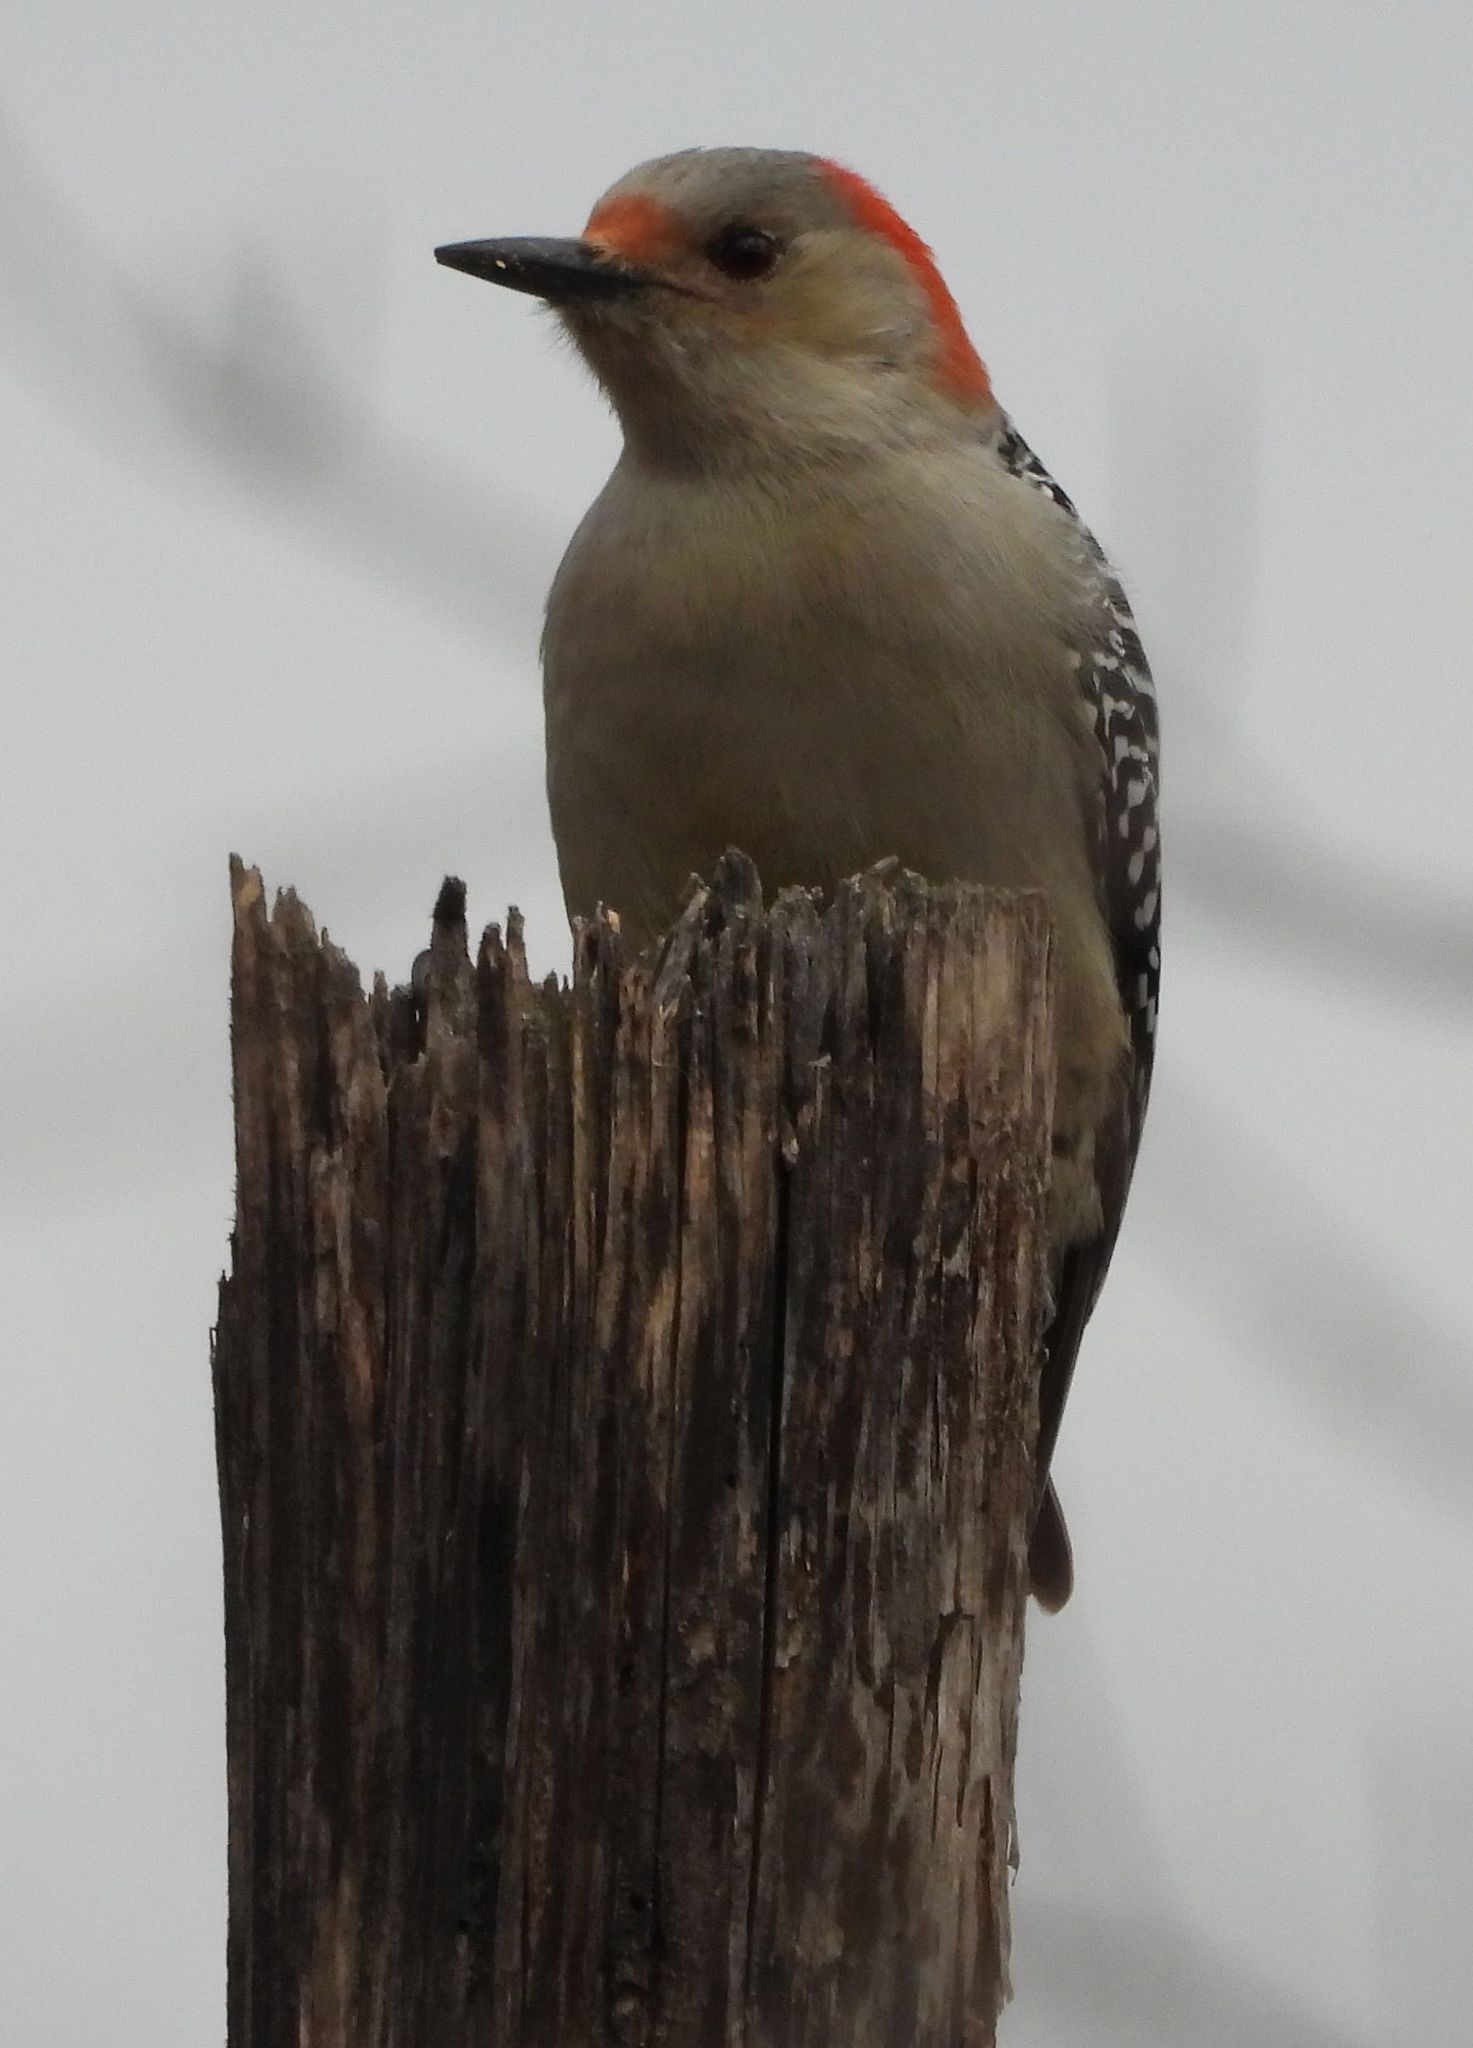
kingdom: Animalia
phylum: Chordata
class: Aves
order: Piciformes
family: Picidae
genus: Melanerpes
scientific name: Melanerpes carolinus
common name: Red-bellied woodpecker
